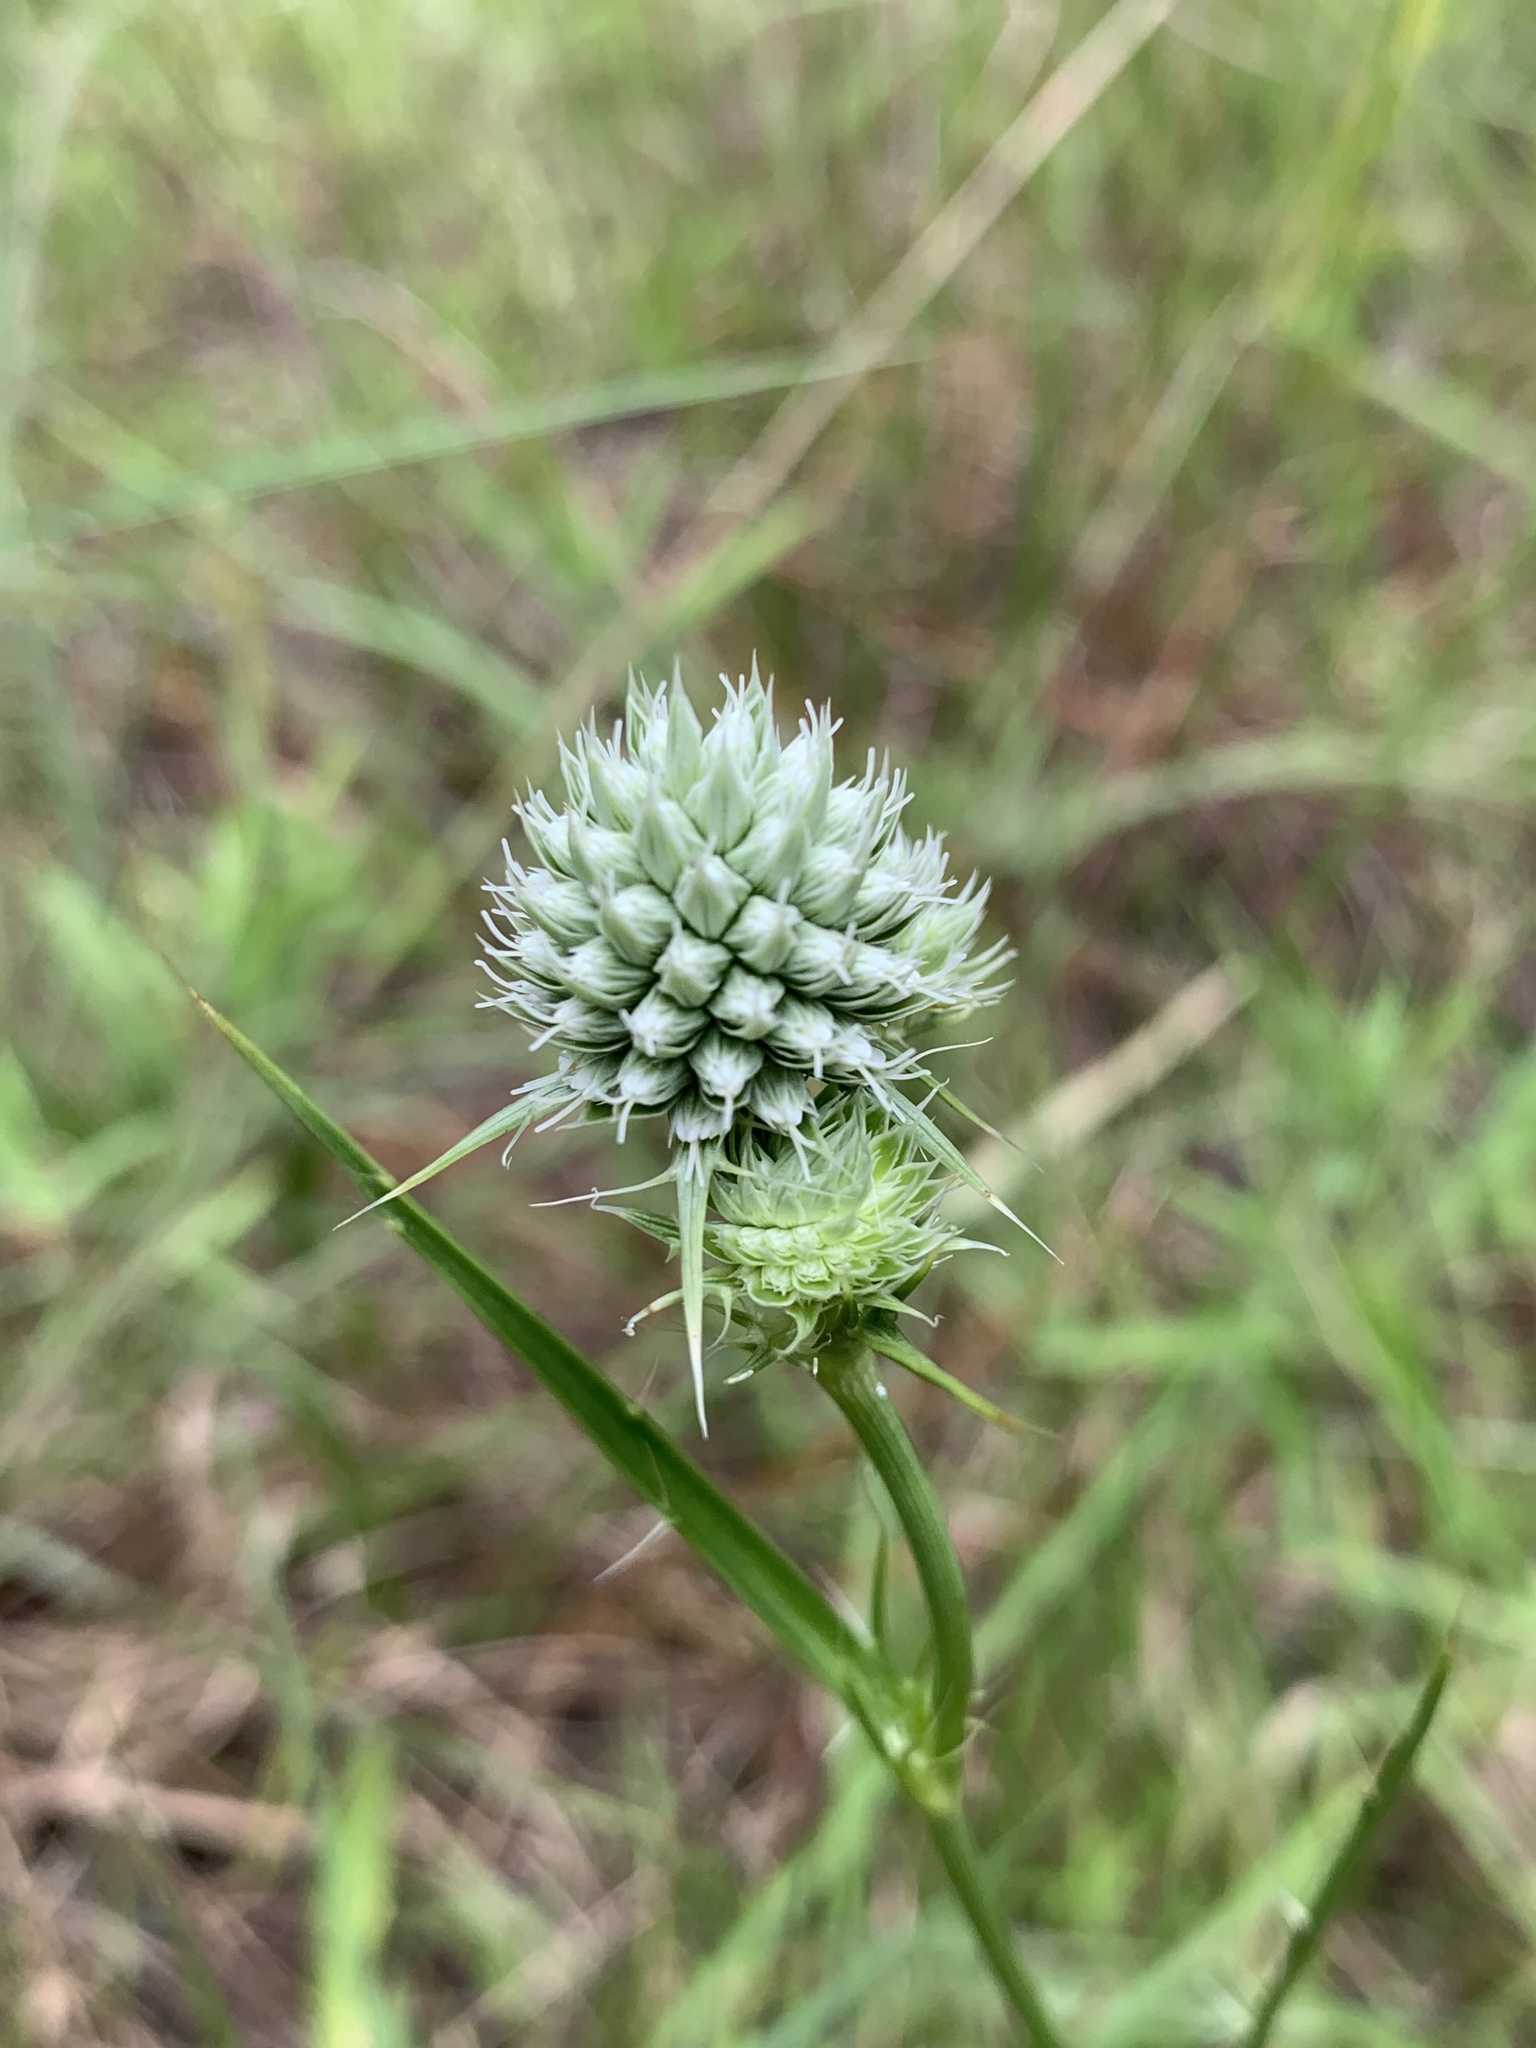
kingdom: Plantae
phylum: Tracheophyta
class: Magnoliopsida
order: Apiales
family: Apiaceae
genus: Eryngium
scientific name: Eryngium yuccifolium
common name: Button eryngo
